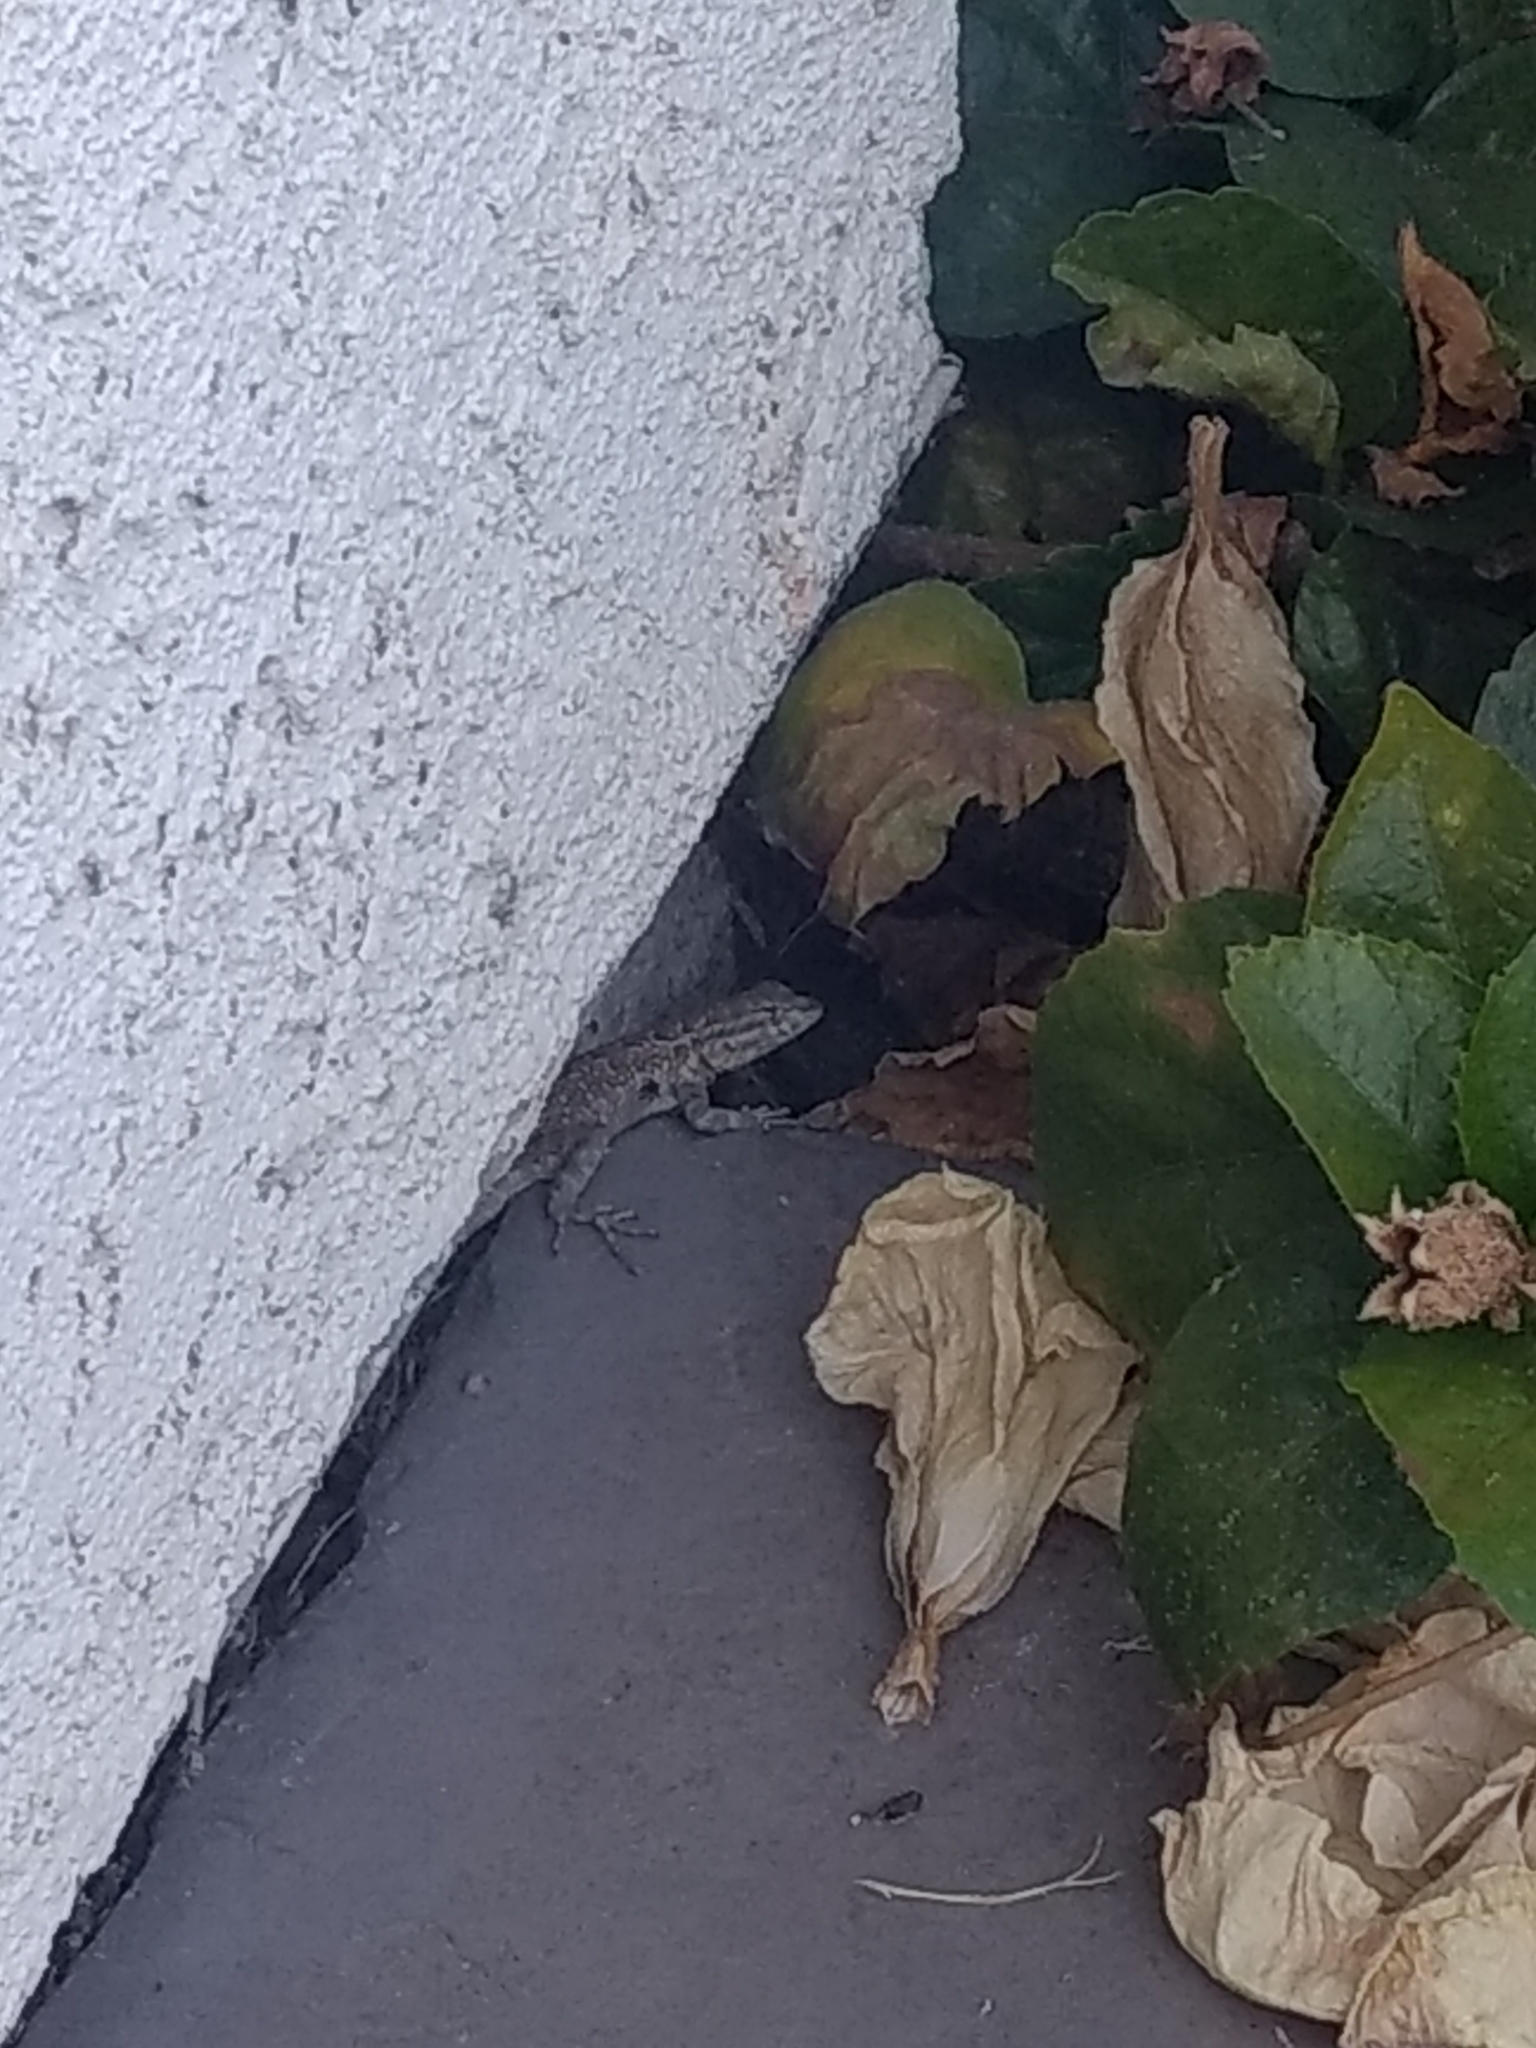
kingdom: Animalia
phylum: Chordata
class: Squamata
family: Phrynosomatidae
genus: Uta
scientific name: Uta stansburiana
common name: Side-blotched lizard
